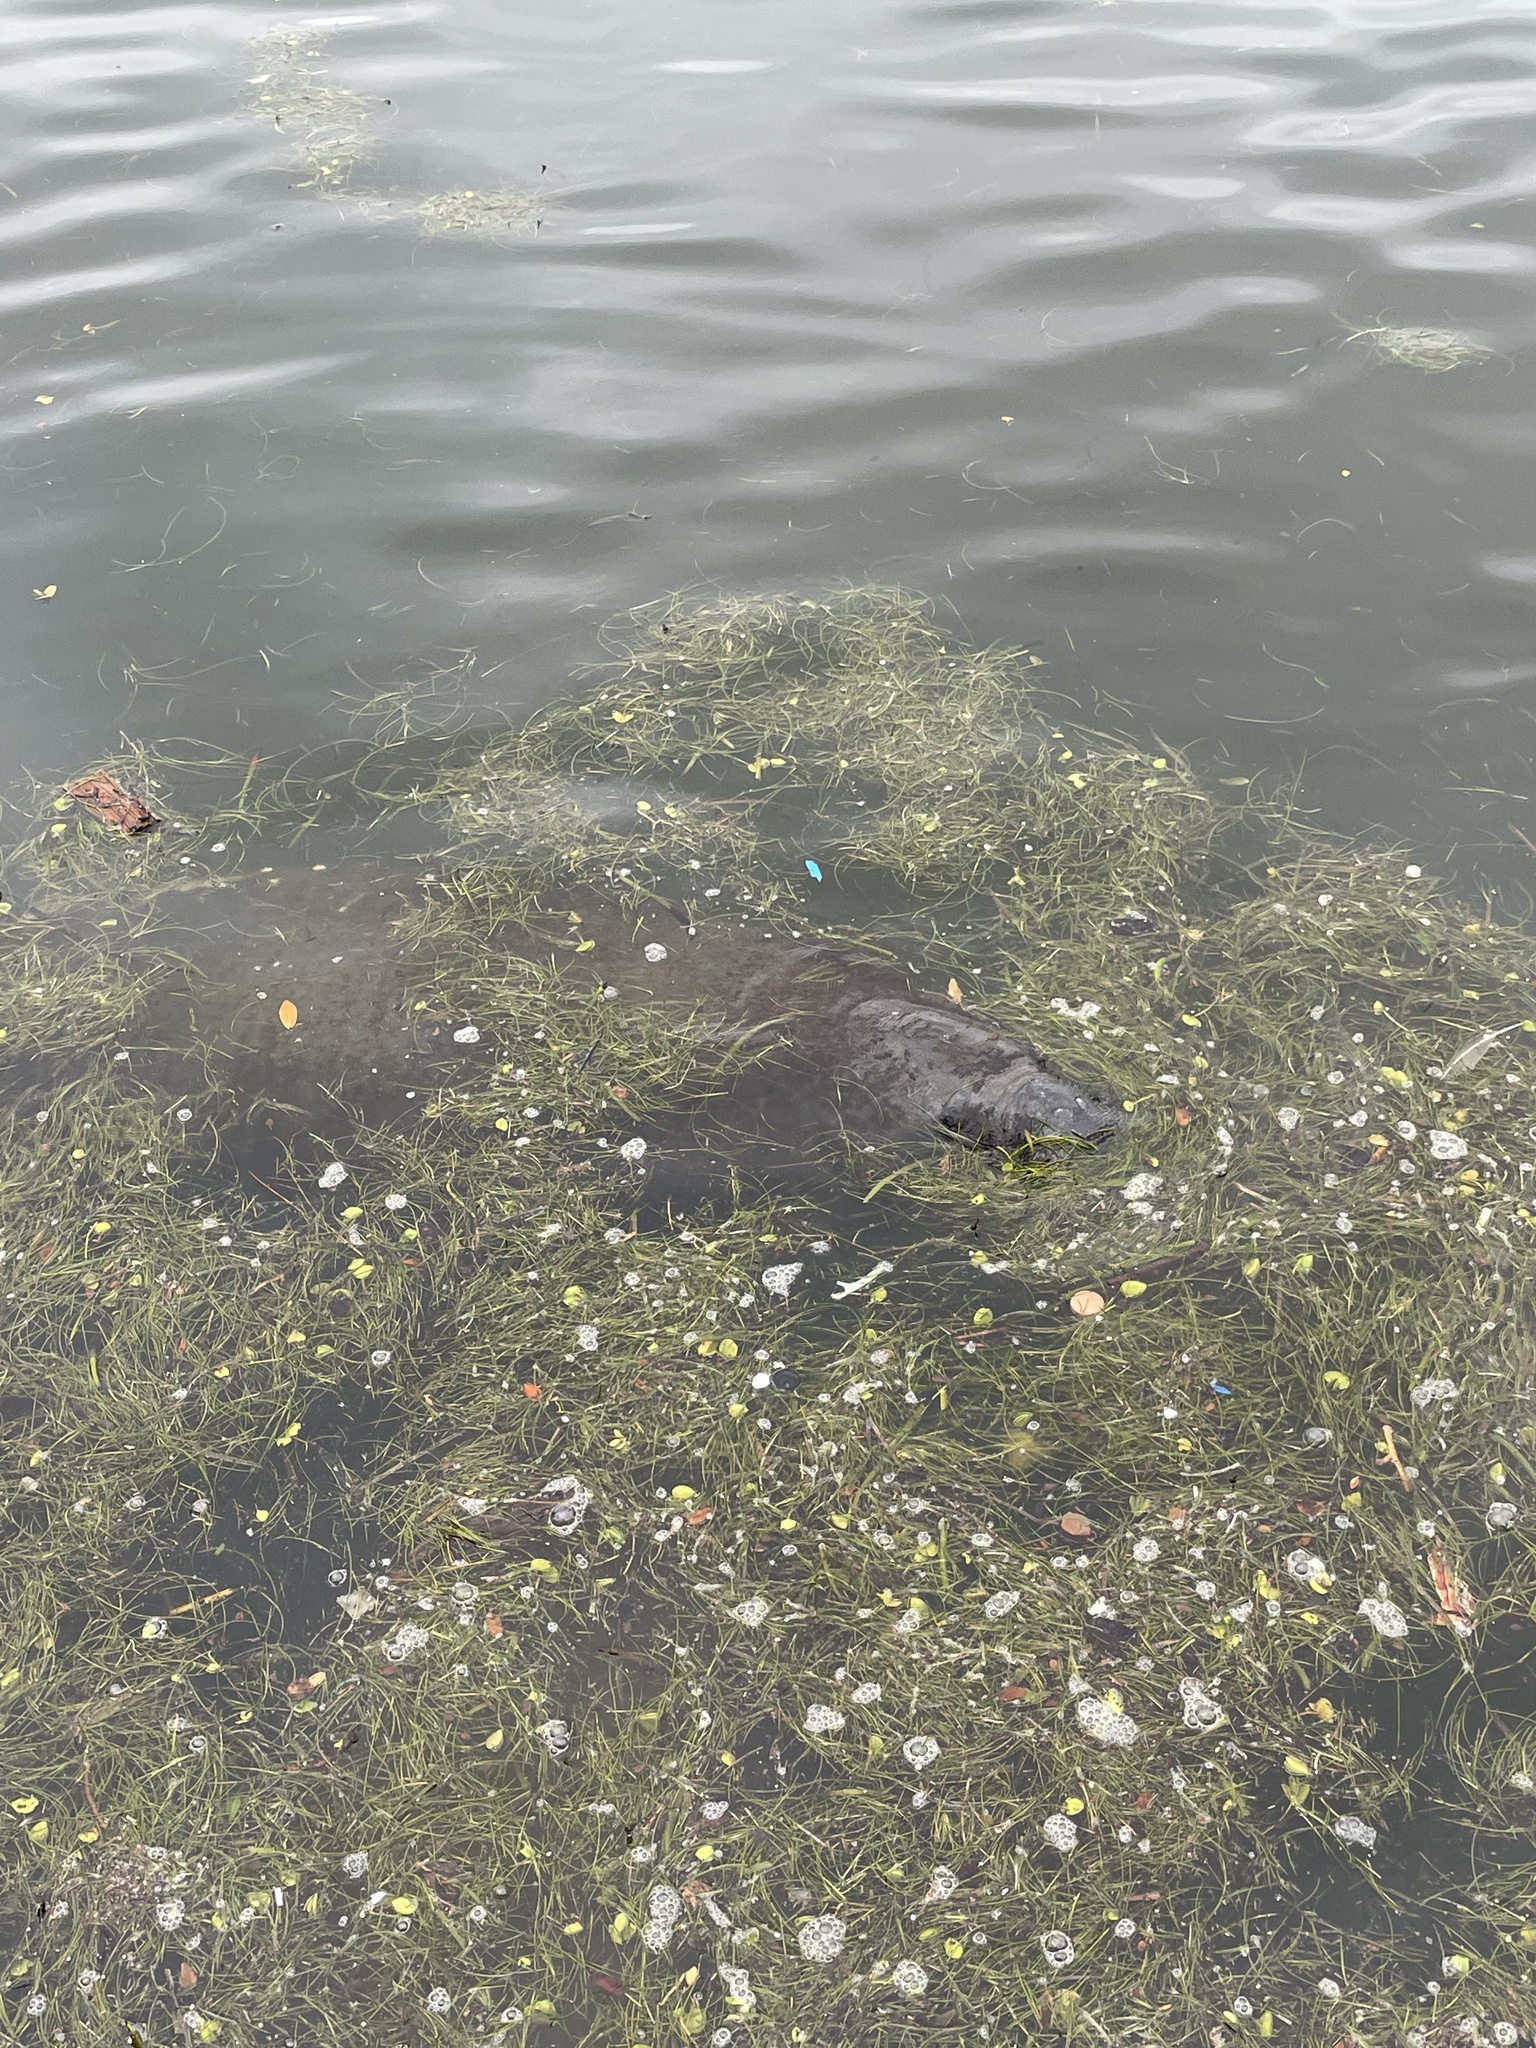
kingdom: Animalia
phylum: Chordata
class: Mammalia
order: Sirenia
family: Trichechidae
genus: Trichechus
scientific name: Trichechus manatus
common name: West indian manatee
